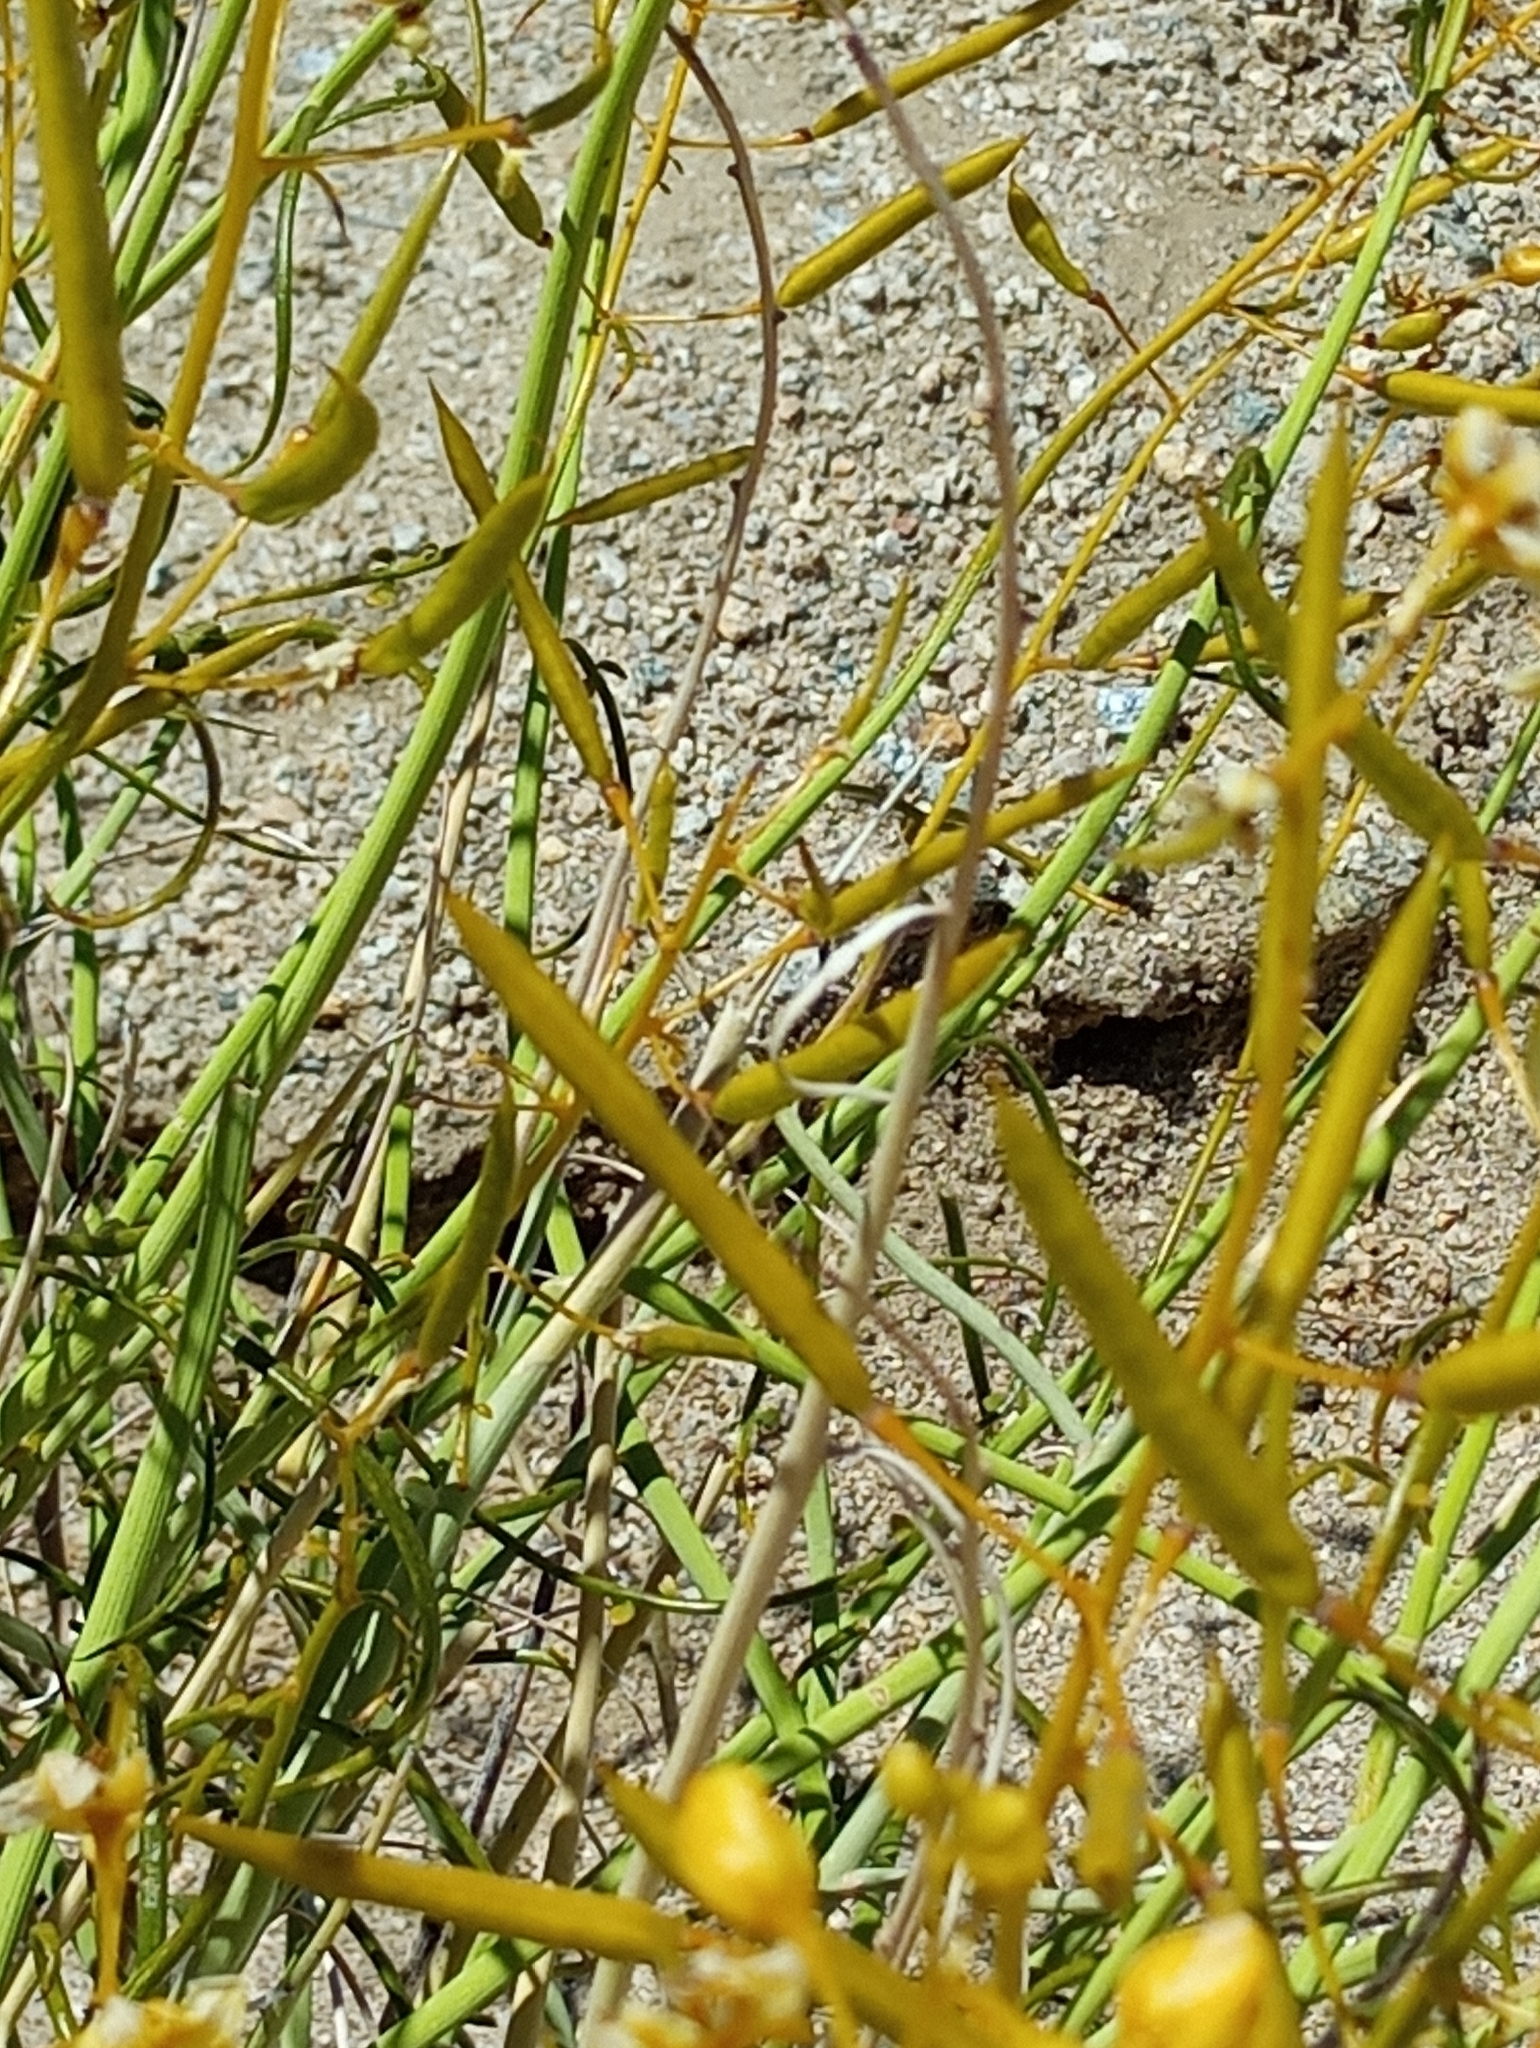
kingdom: Plantae
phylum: Tracheophyta
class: Magnoliopsida
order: Fabales
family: Fabaceae
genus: Senna
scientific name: Senna armata
